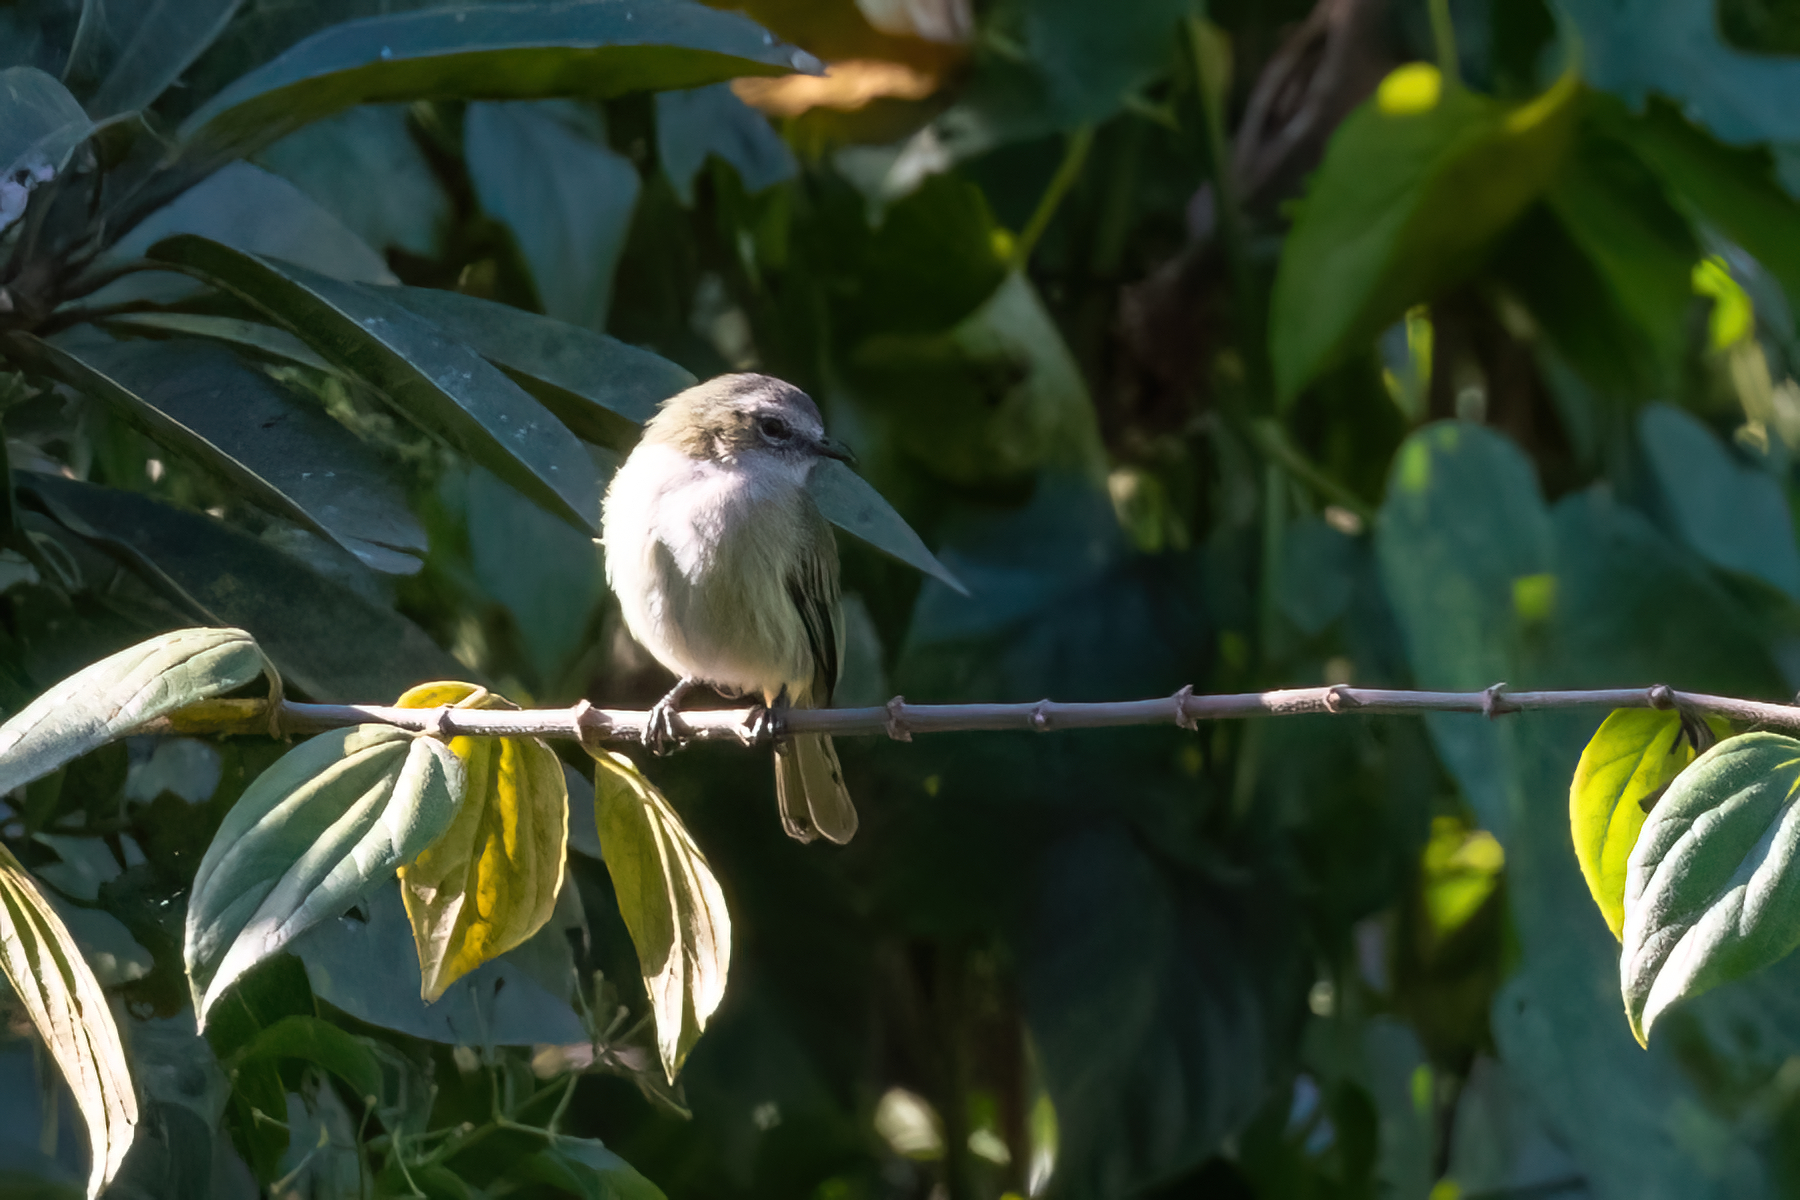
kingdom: Animalia
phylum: Chordata
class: Aves
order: Passeriformes
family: Tyrannidae
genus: Zimmerius
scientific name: Zimmerius vilissimus
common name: Paltry tyrannulet
